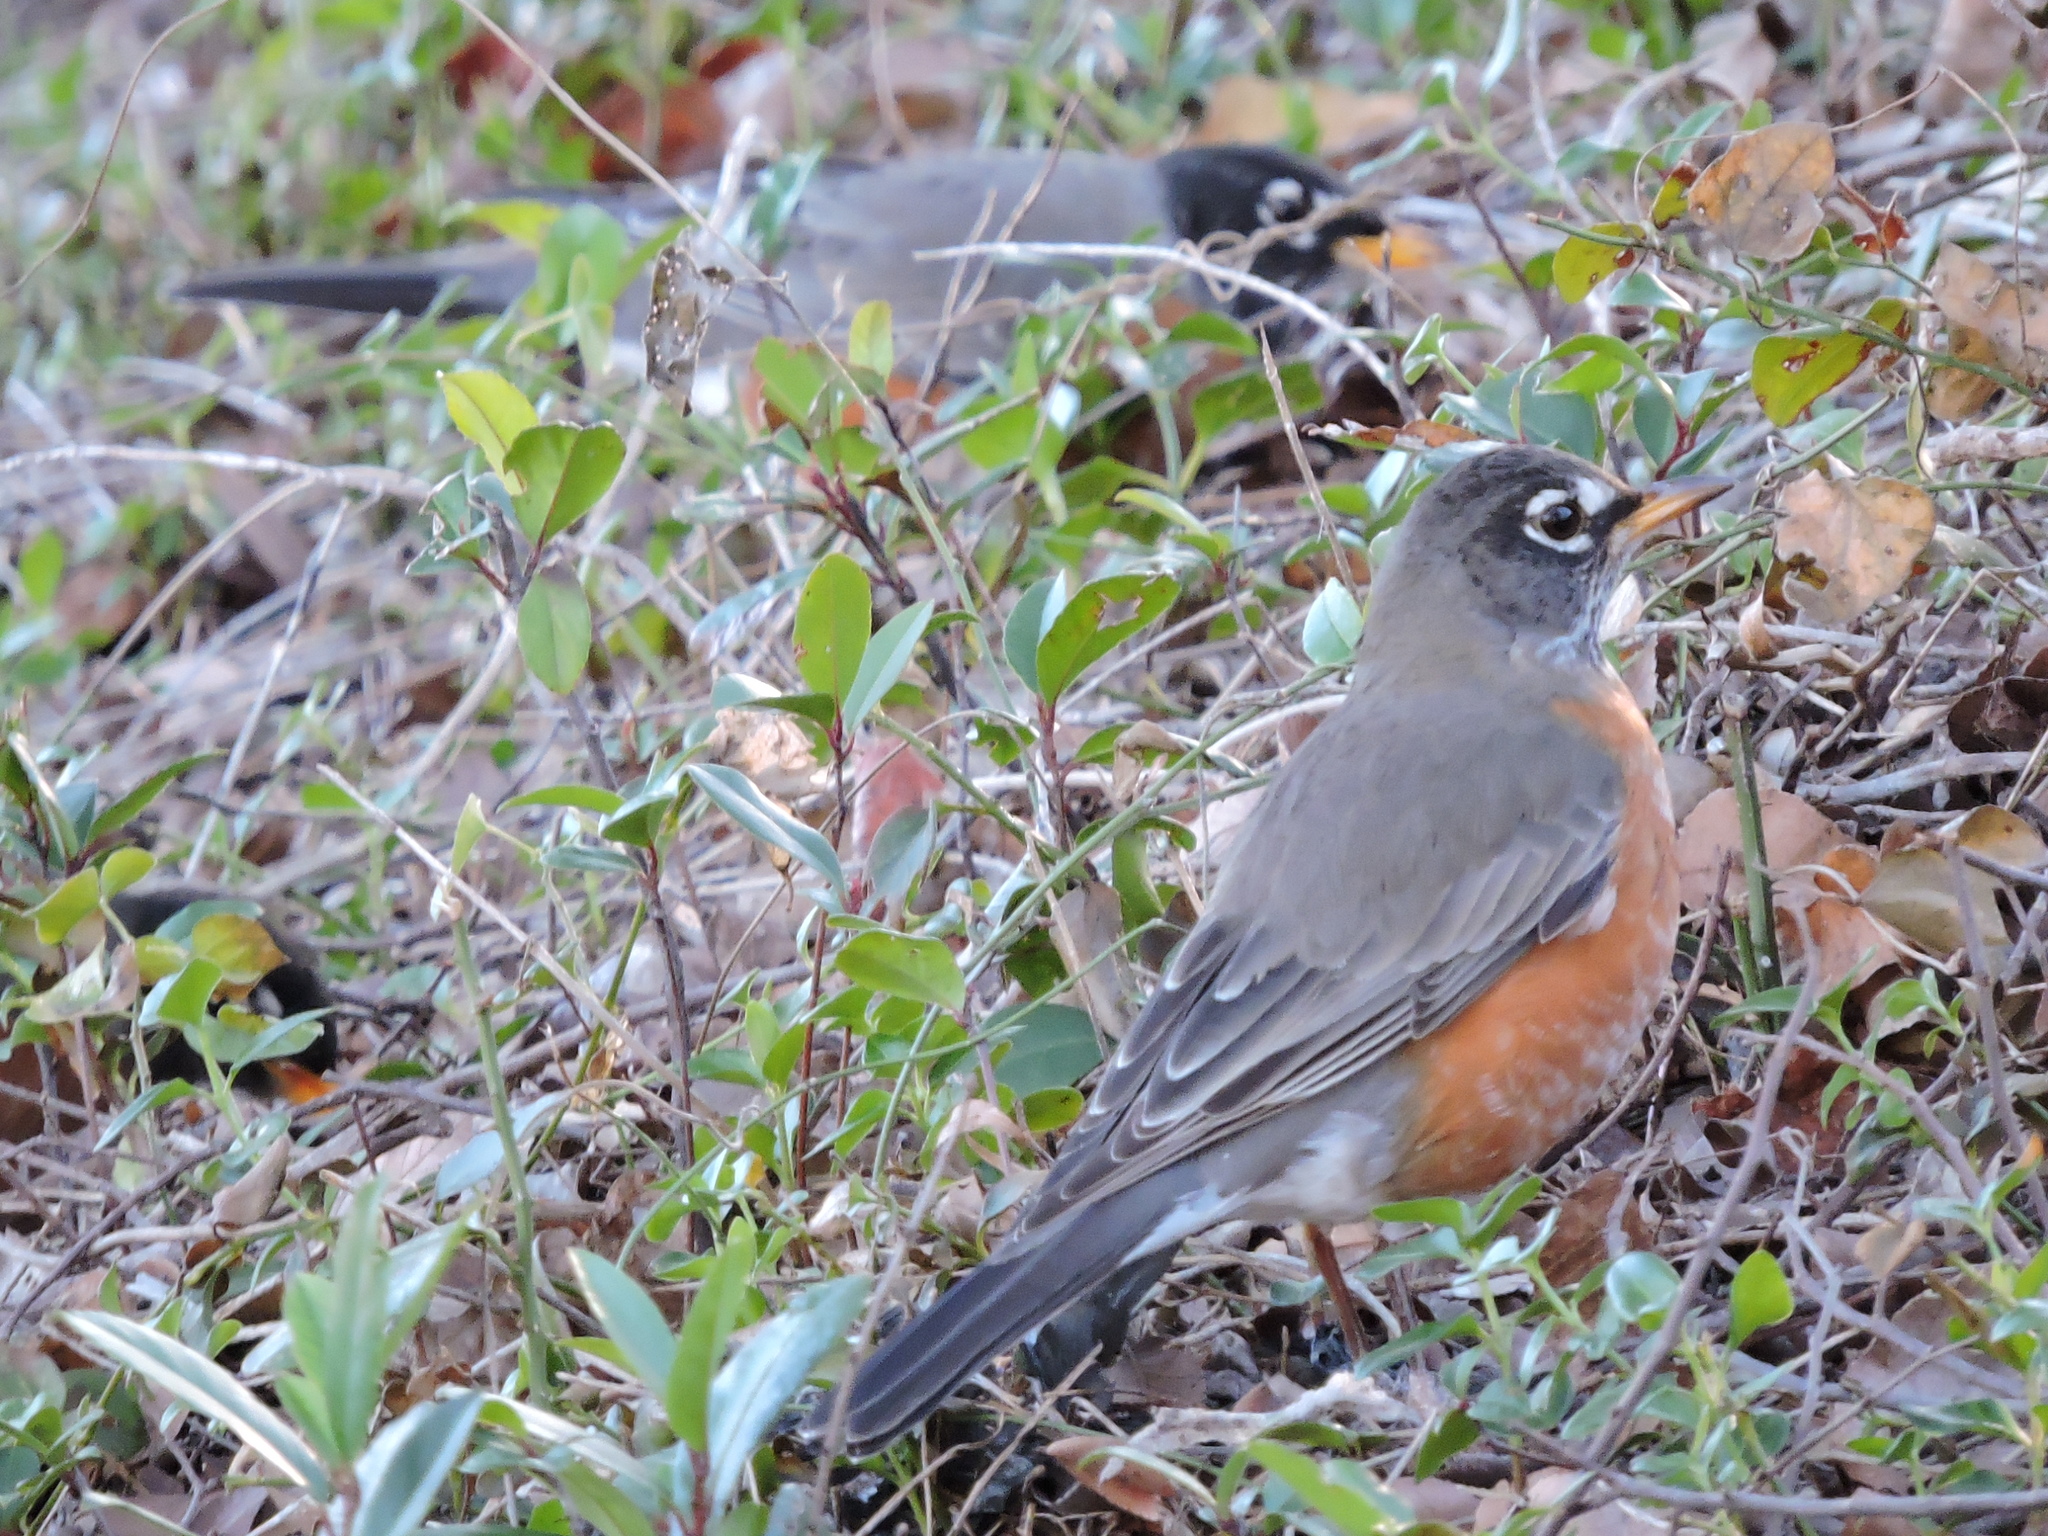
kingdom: Animalia
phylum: Chordata
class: Aves
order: Passeriformes
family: Turdidae
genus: Turdus
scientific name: Turdus migratorius
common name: American robin
